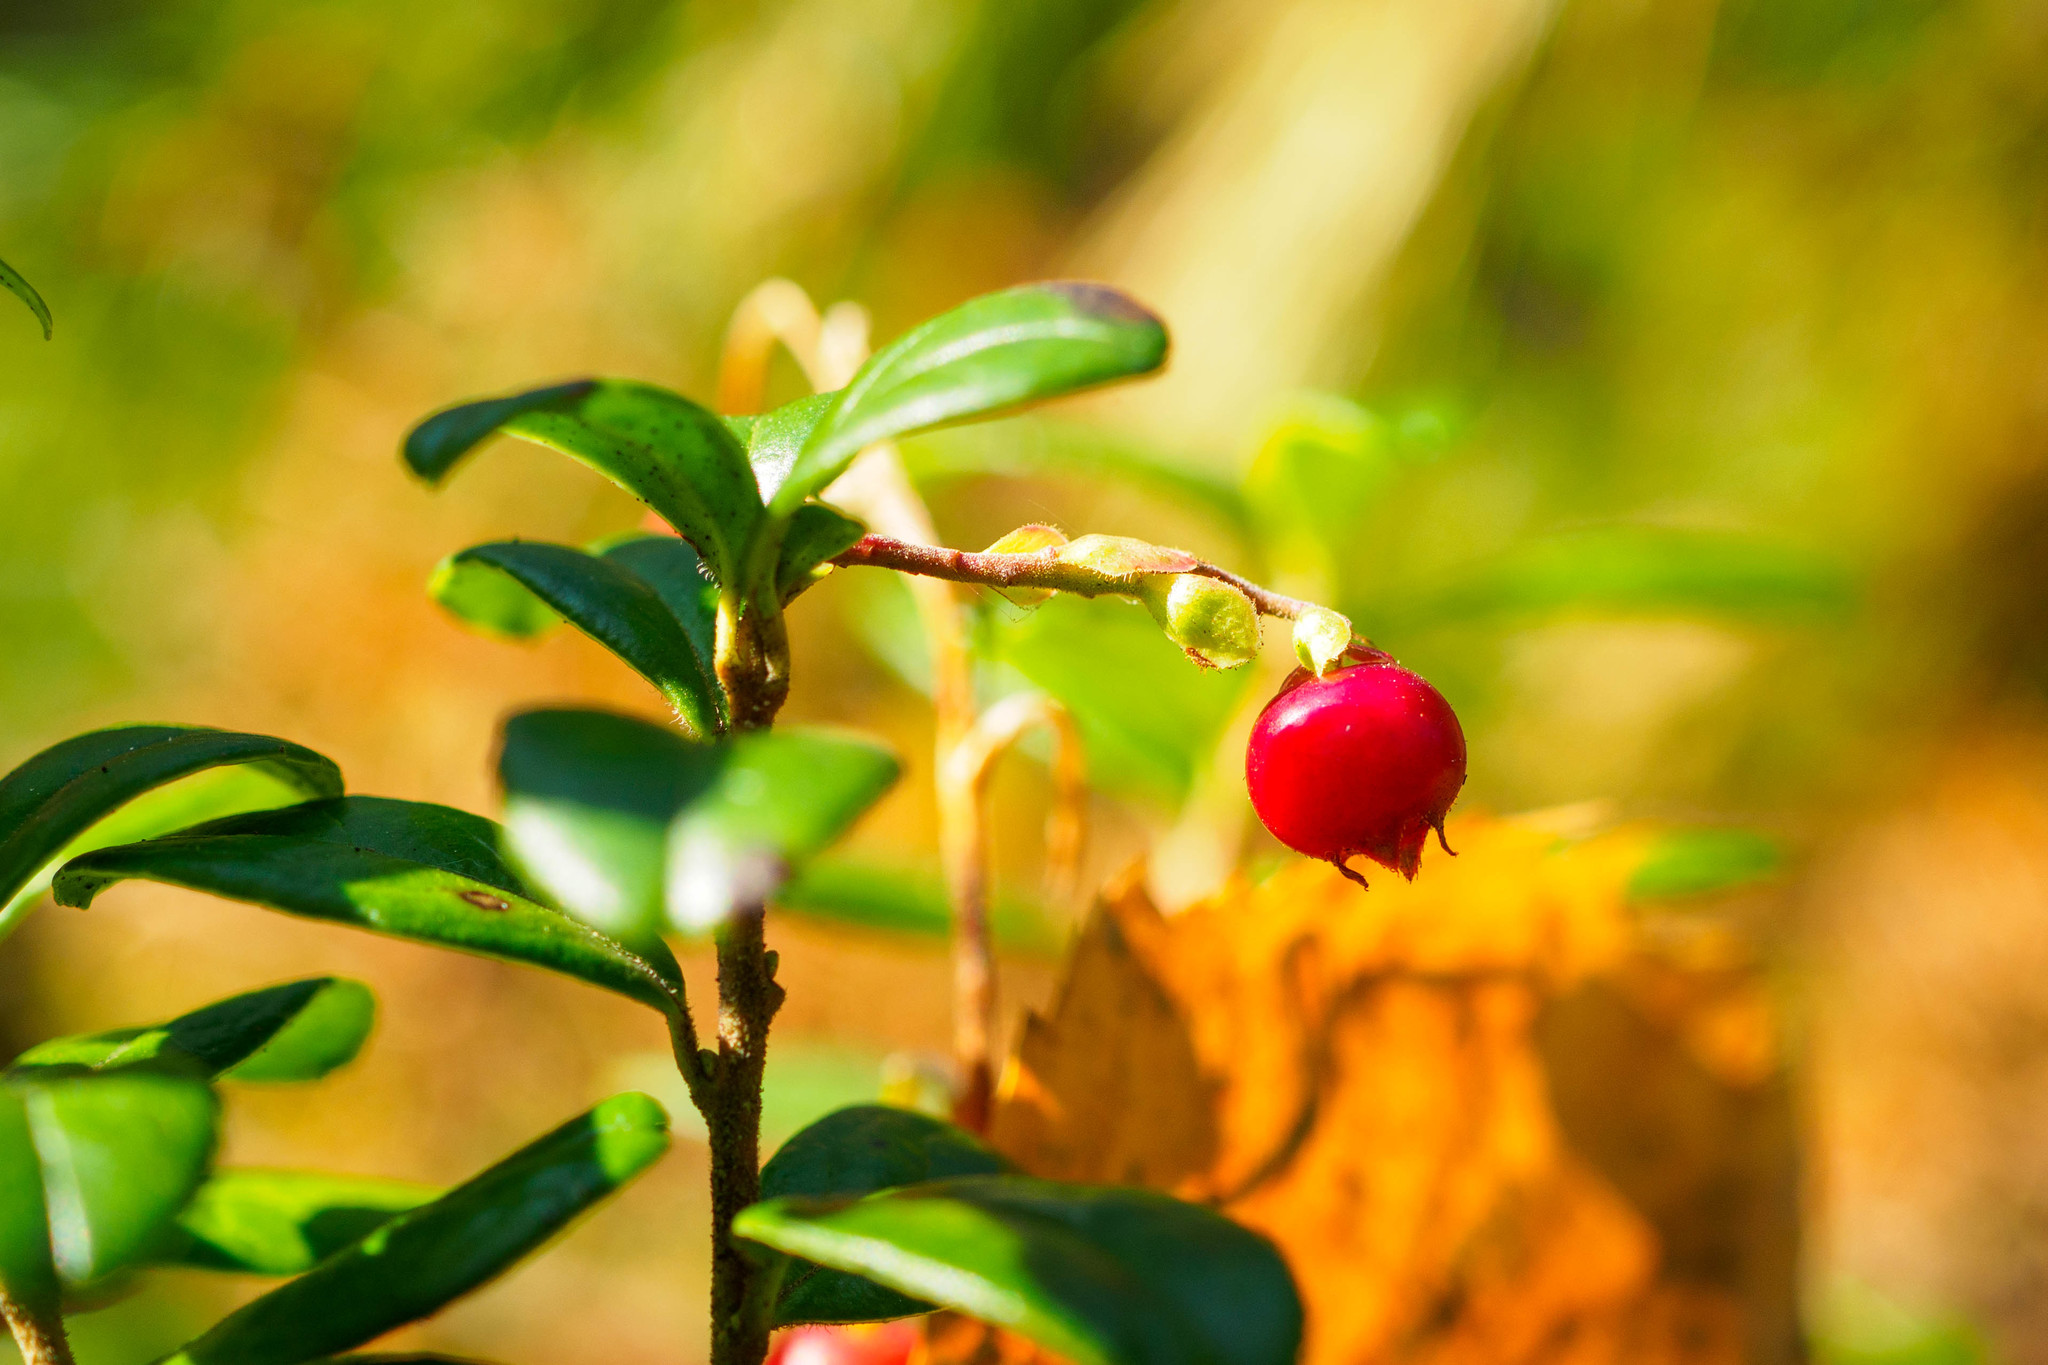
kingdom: Plantae
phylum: Tracheophyta
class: Magnoliopsida
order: Ericales
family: Ericaceae
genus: Vaccinium
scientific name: Vaccinium vitis-idaea
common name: Cowberry
